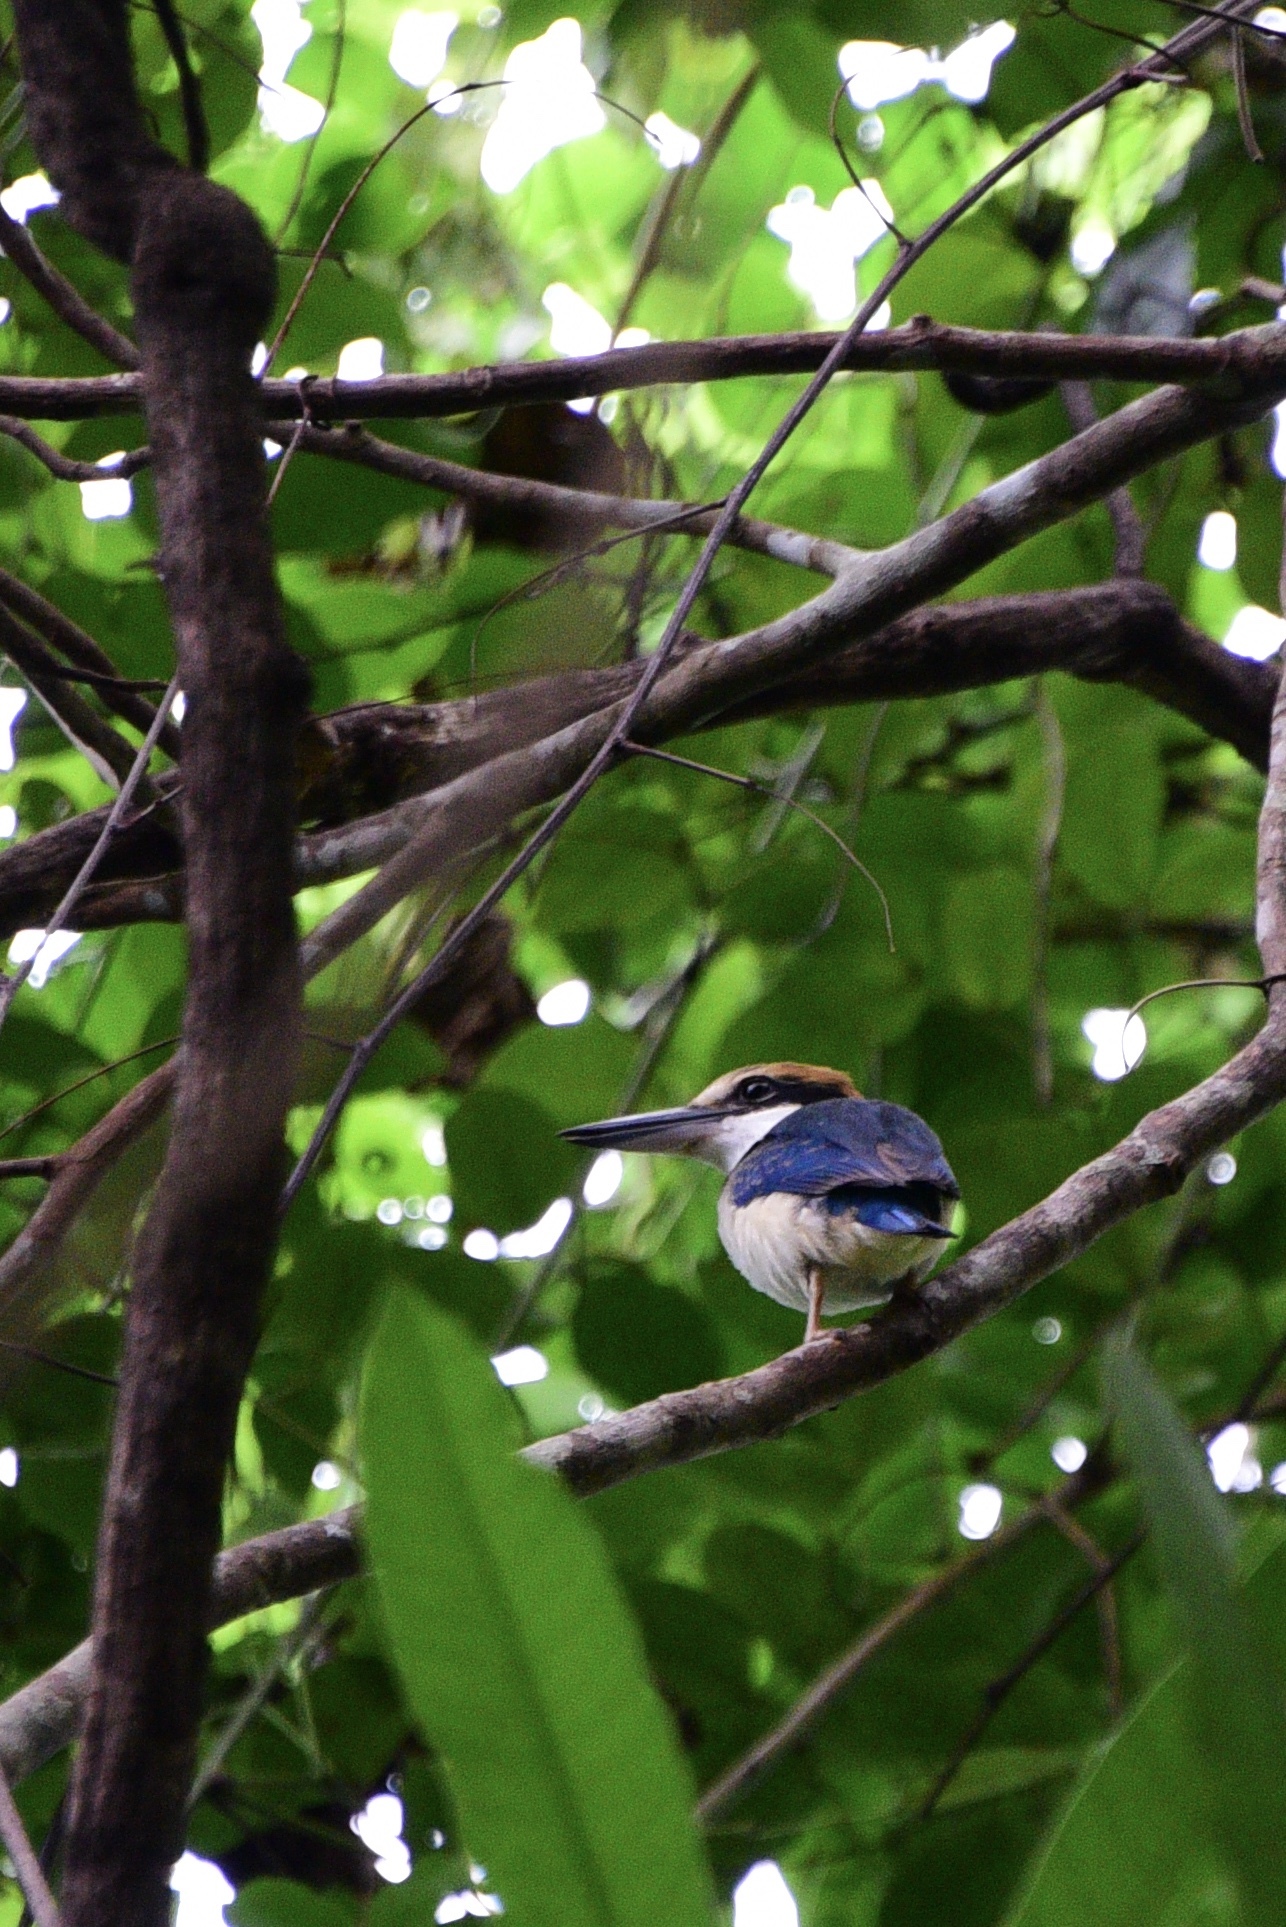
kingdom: Animalia
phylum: Chordata
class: Aves
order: Coraciiformes
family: Alcedinidae
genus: Todiramphus
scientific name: Todiramphus sacer
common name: Pacific kingfisher
